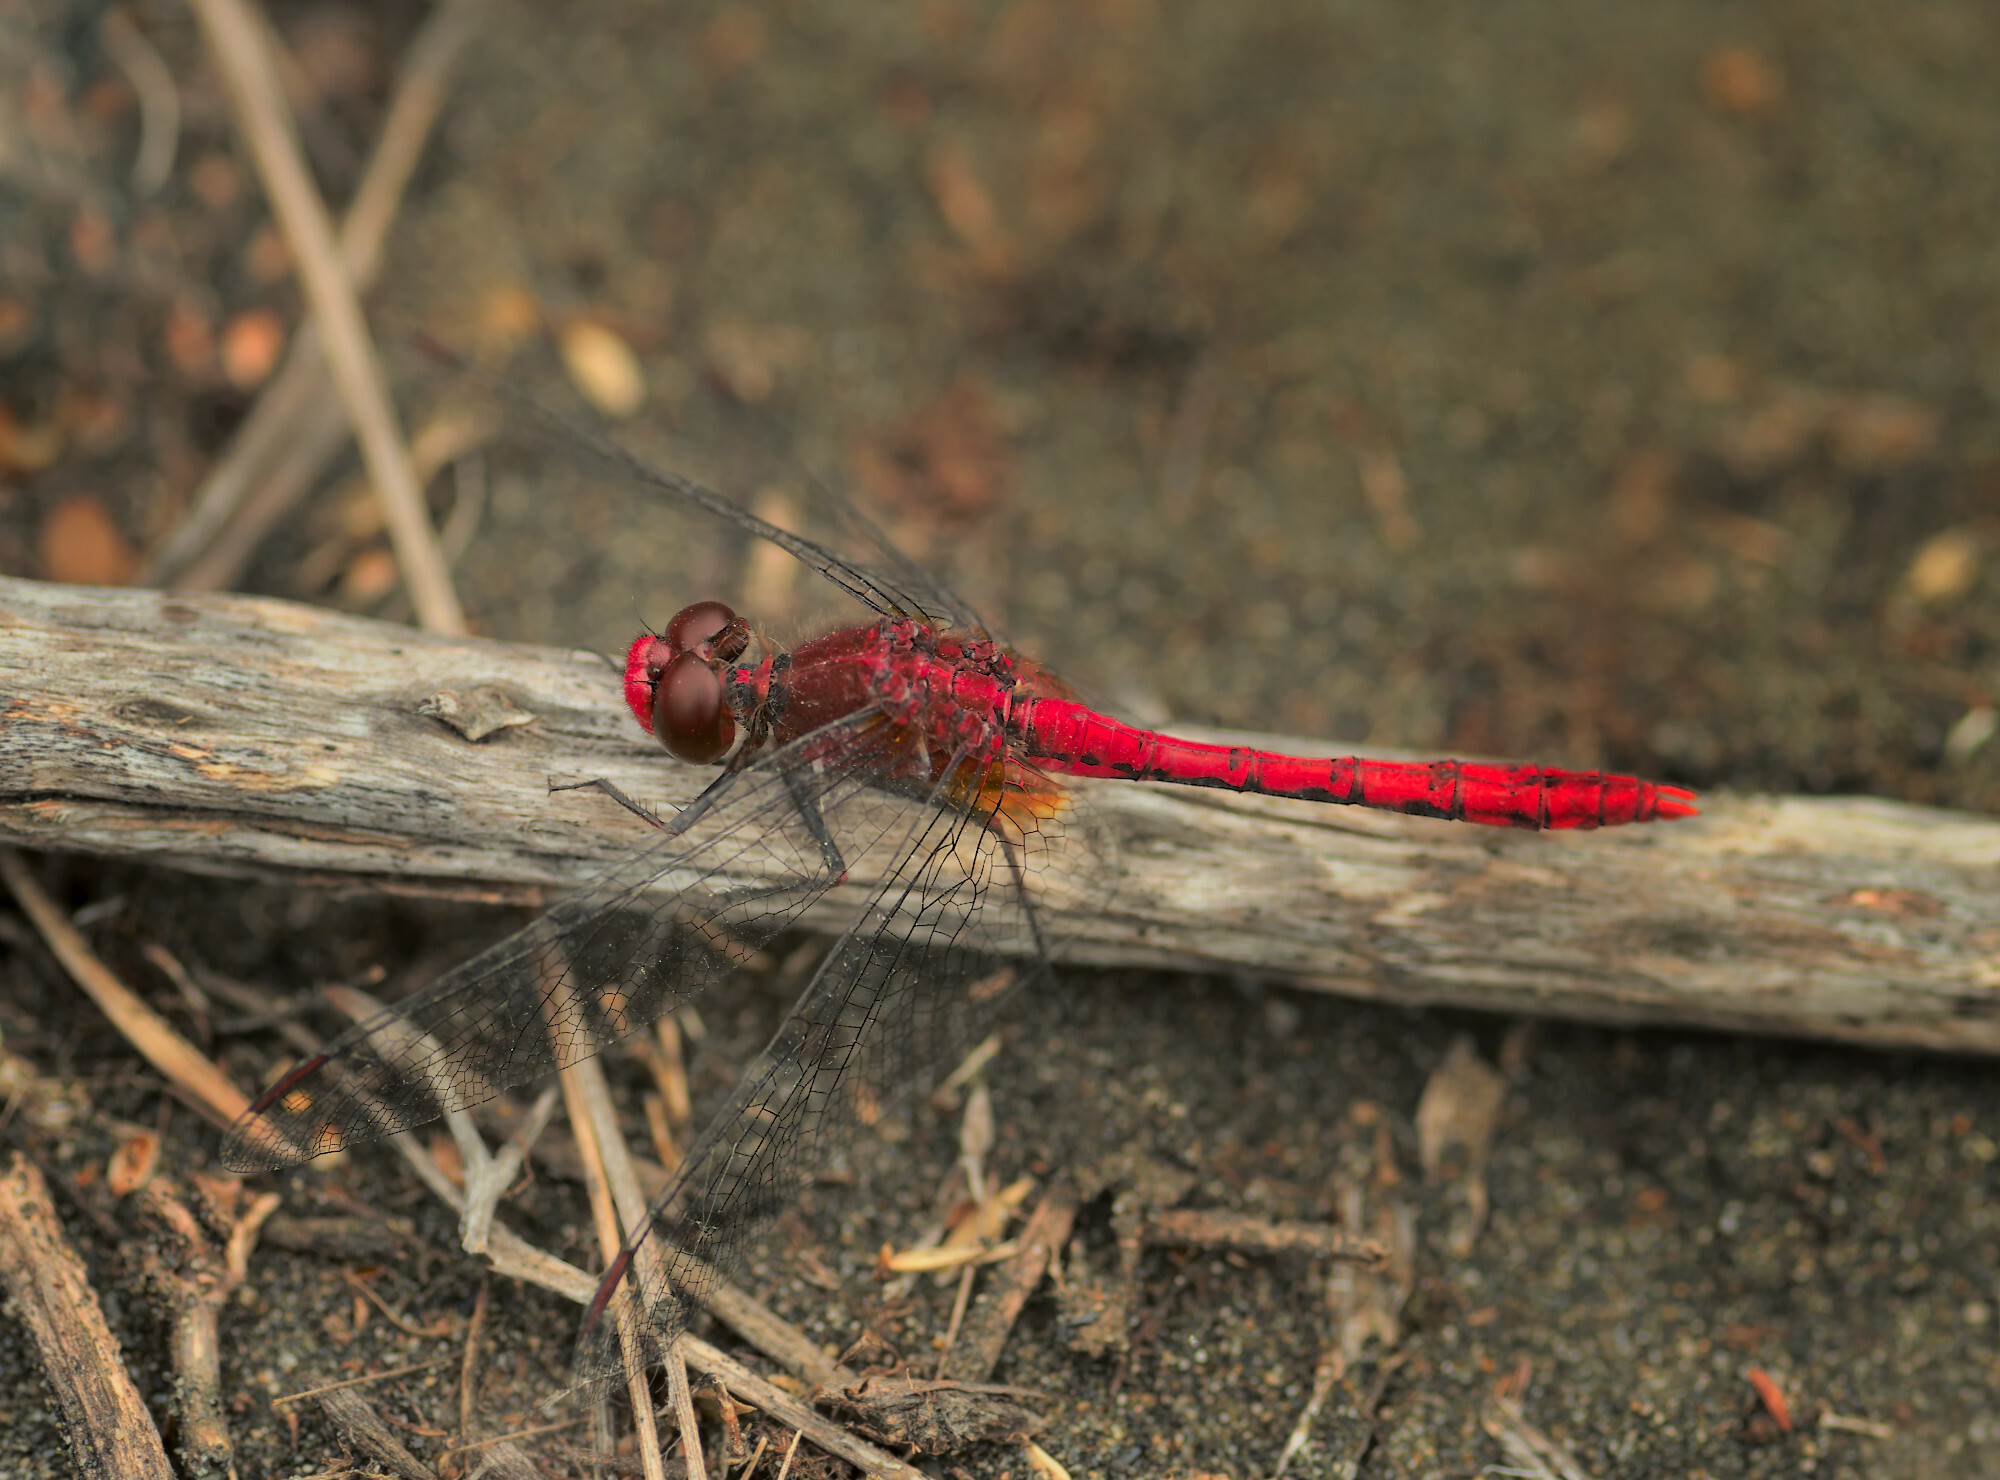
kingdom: Animalia
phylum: Arthropoda
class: Insecta
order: Odonata
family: Libellulidae
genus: Diplacodes
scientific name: Diplacodes bipunctata
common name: Red percher dragonfly
